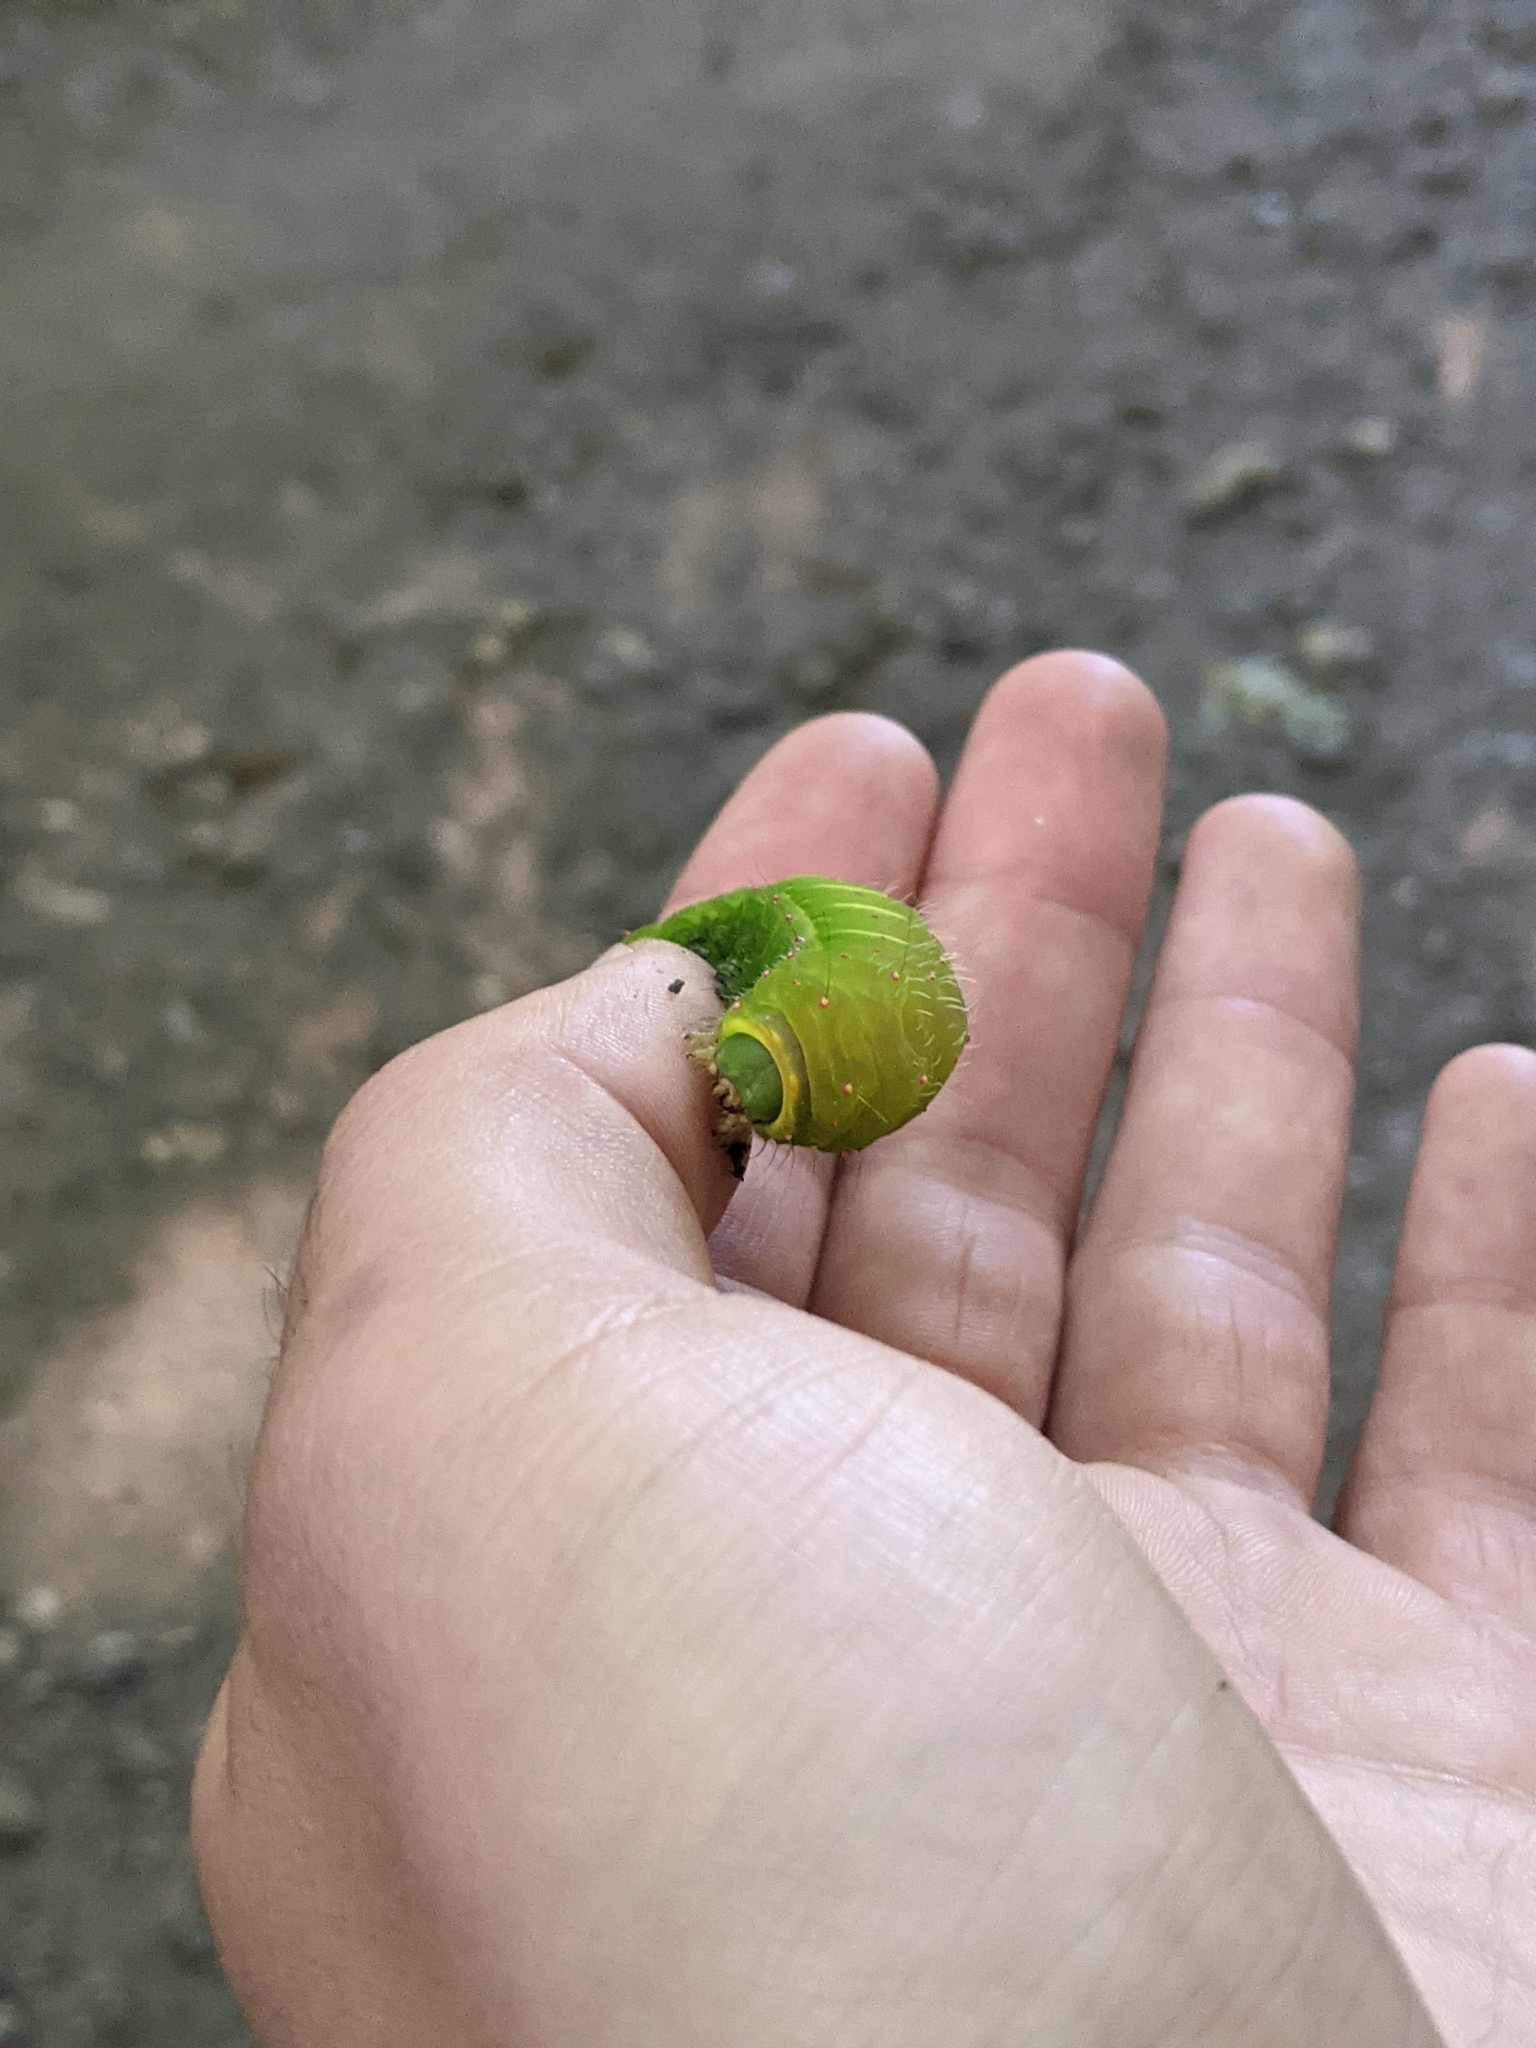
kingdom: Animalia
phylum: Arthropoda
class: Insecta
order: Lepidoptera
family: Saturniidae
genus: Actias
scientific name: Actias luna
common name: Luna moth
